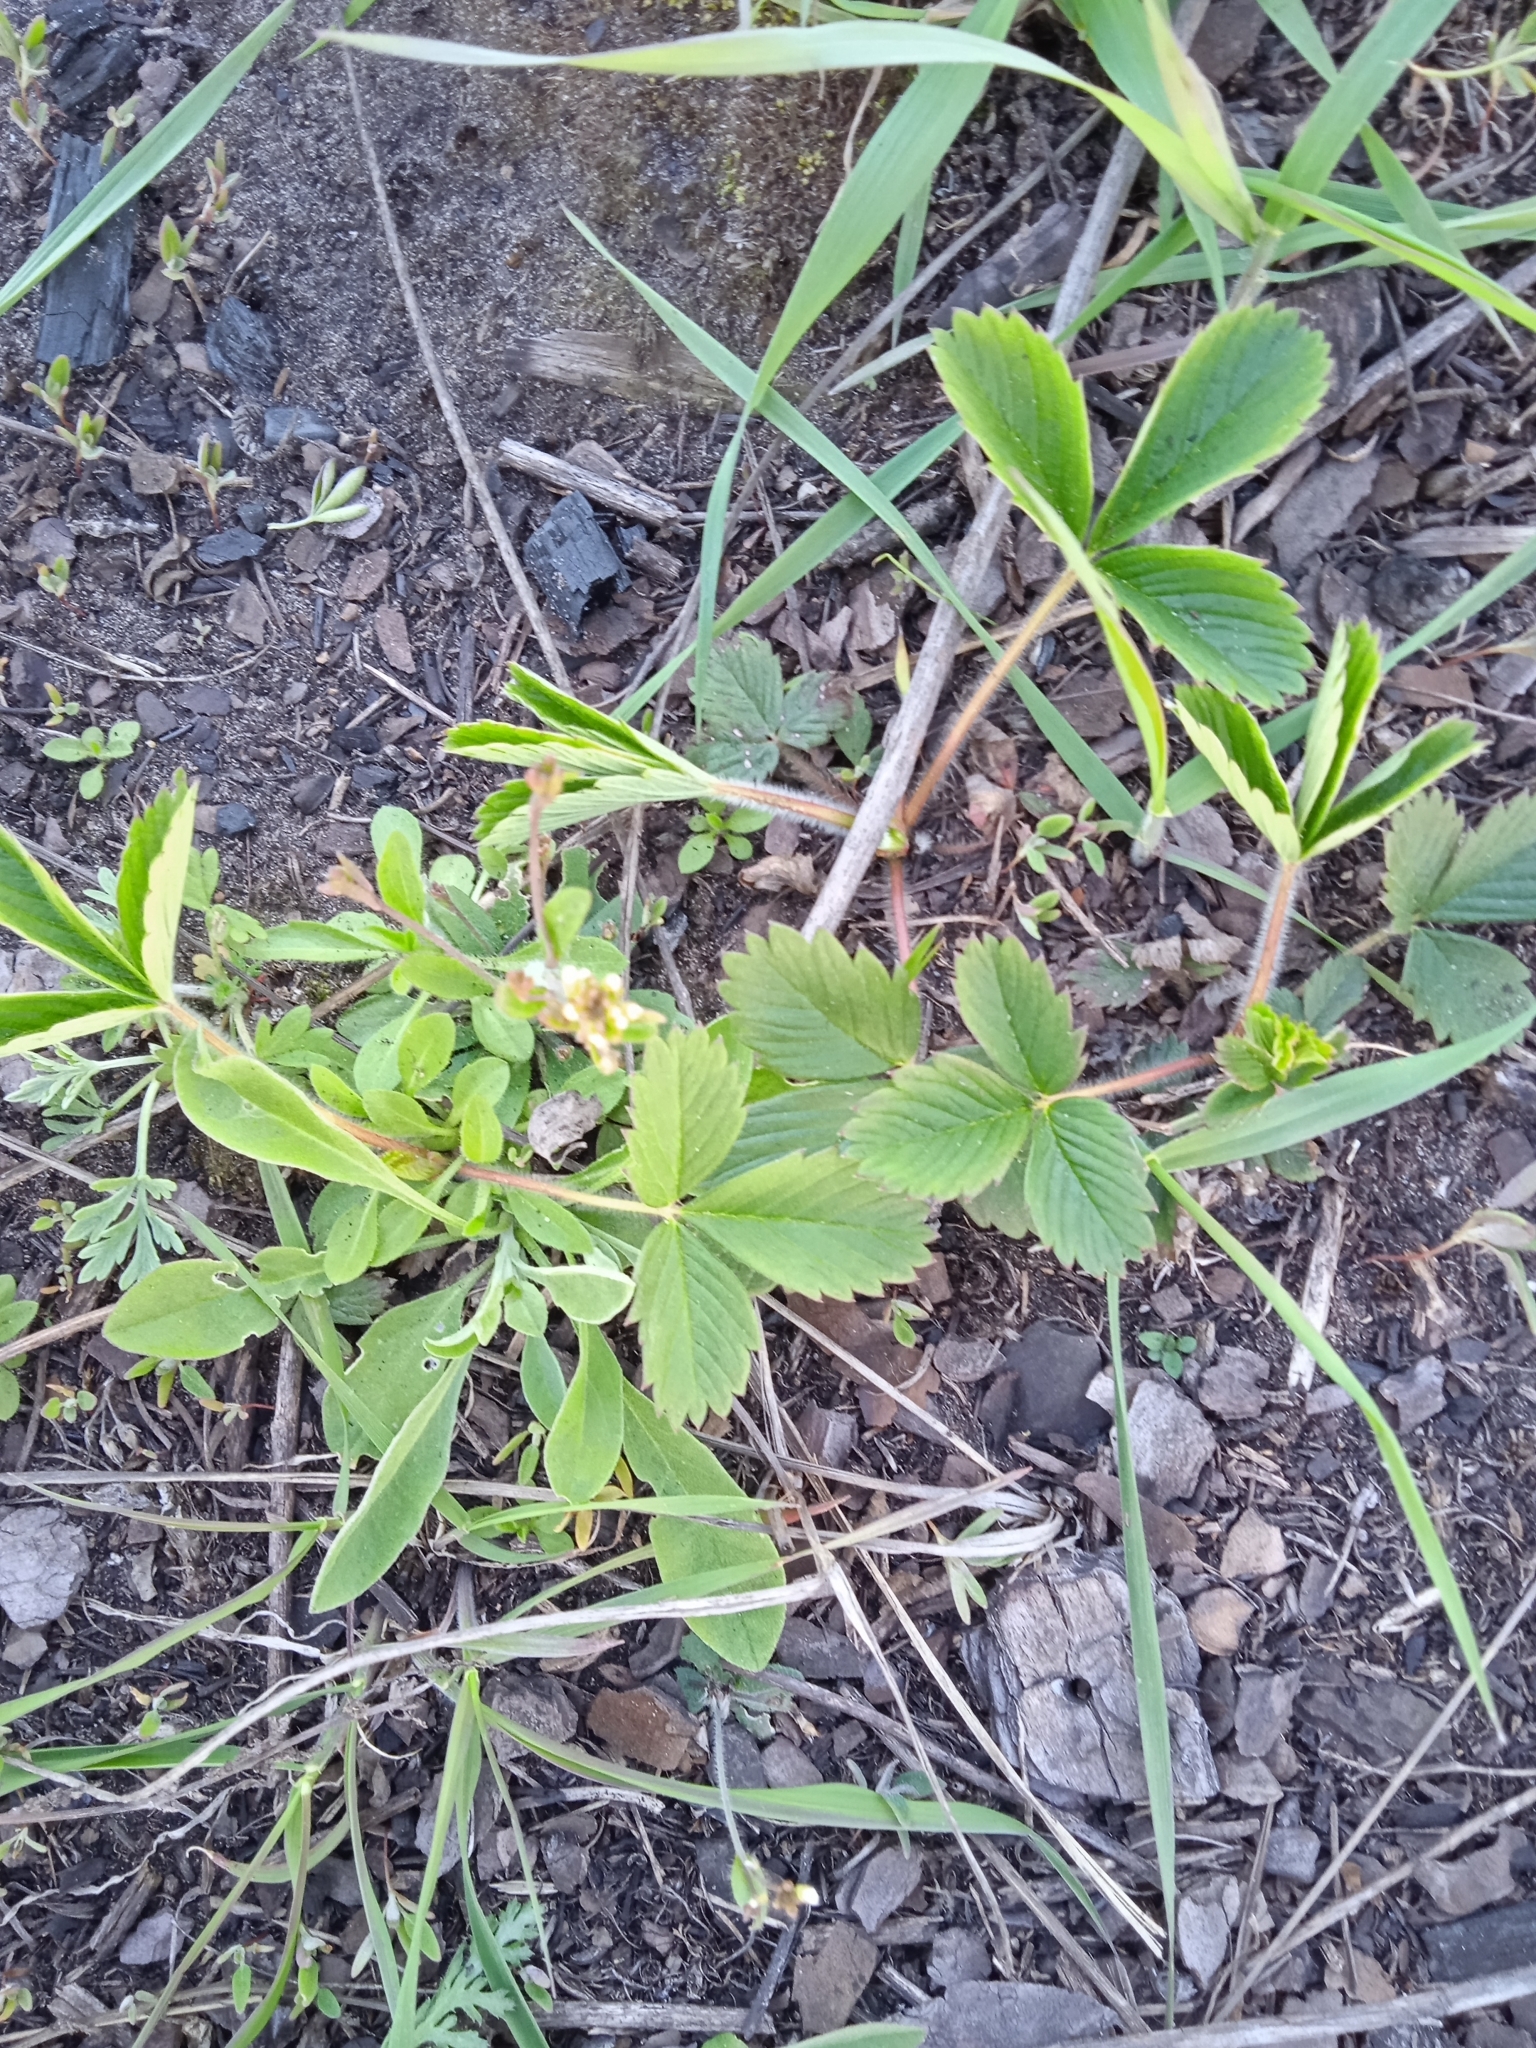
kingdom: Plantae
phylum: Tracheophyta
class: Magnoliopsida
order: Rosales
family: Rosaceae
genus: Fragaria
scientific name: Fragaria viridis
